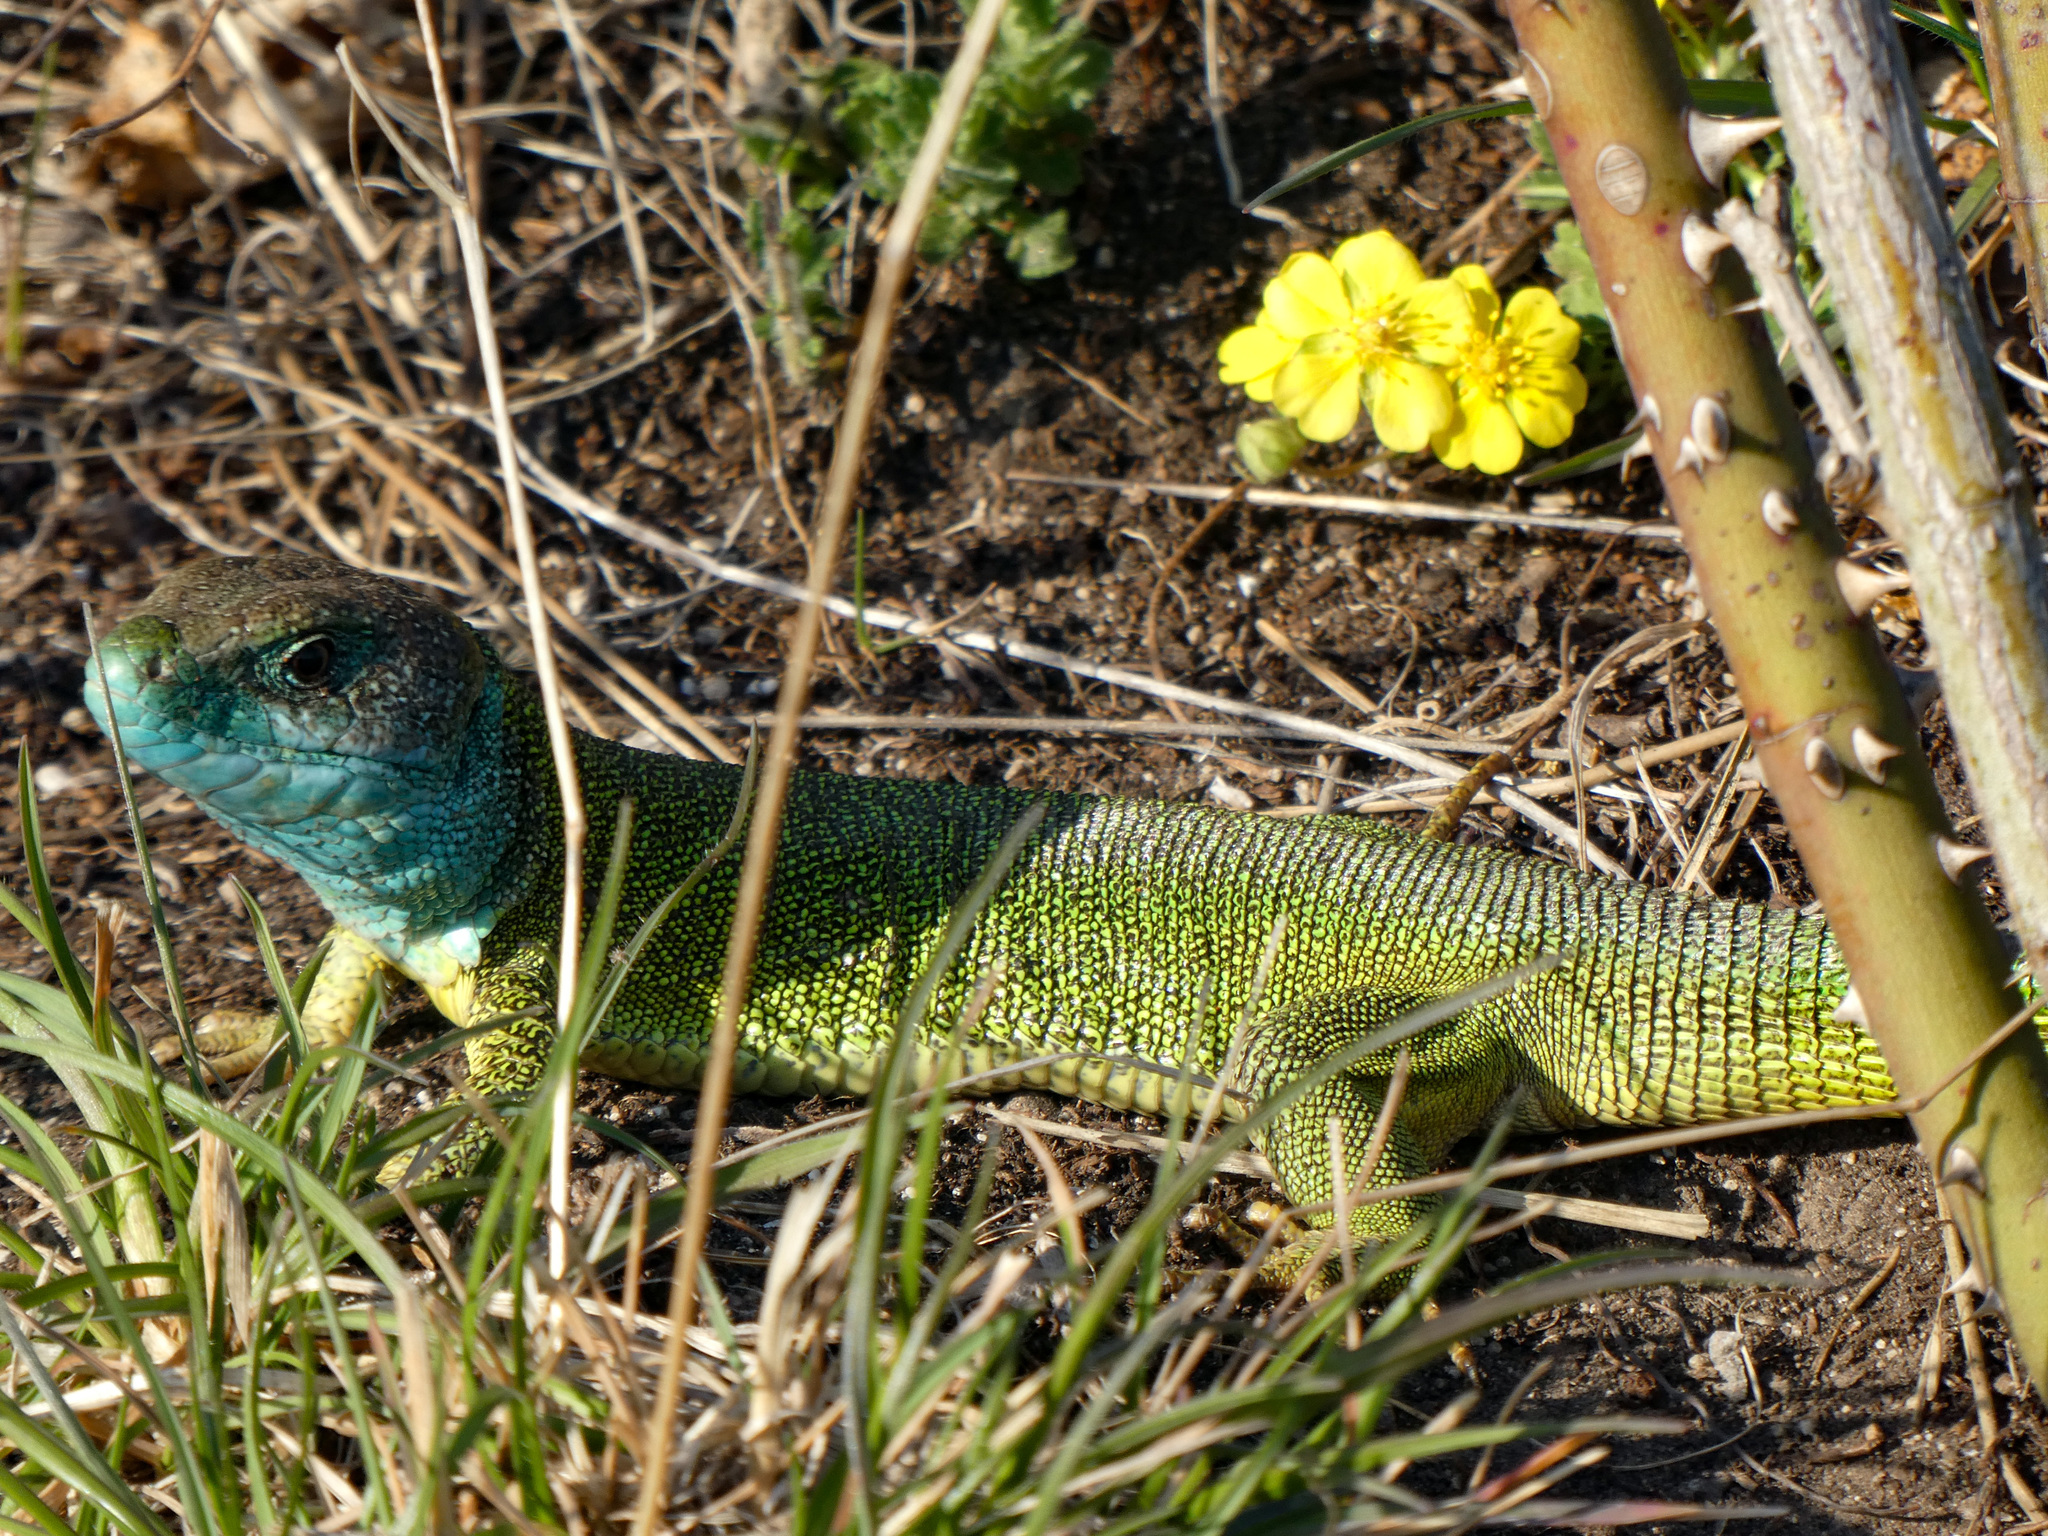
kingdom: Animalia
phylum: Chordata
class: Squamata
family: Lacertidae
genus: Lacerta
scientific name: Lacerta viridis
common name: European green lizard
